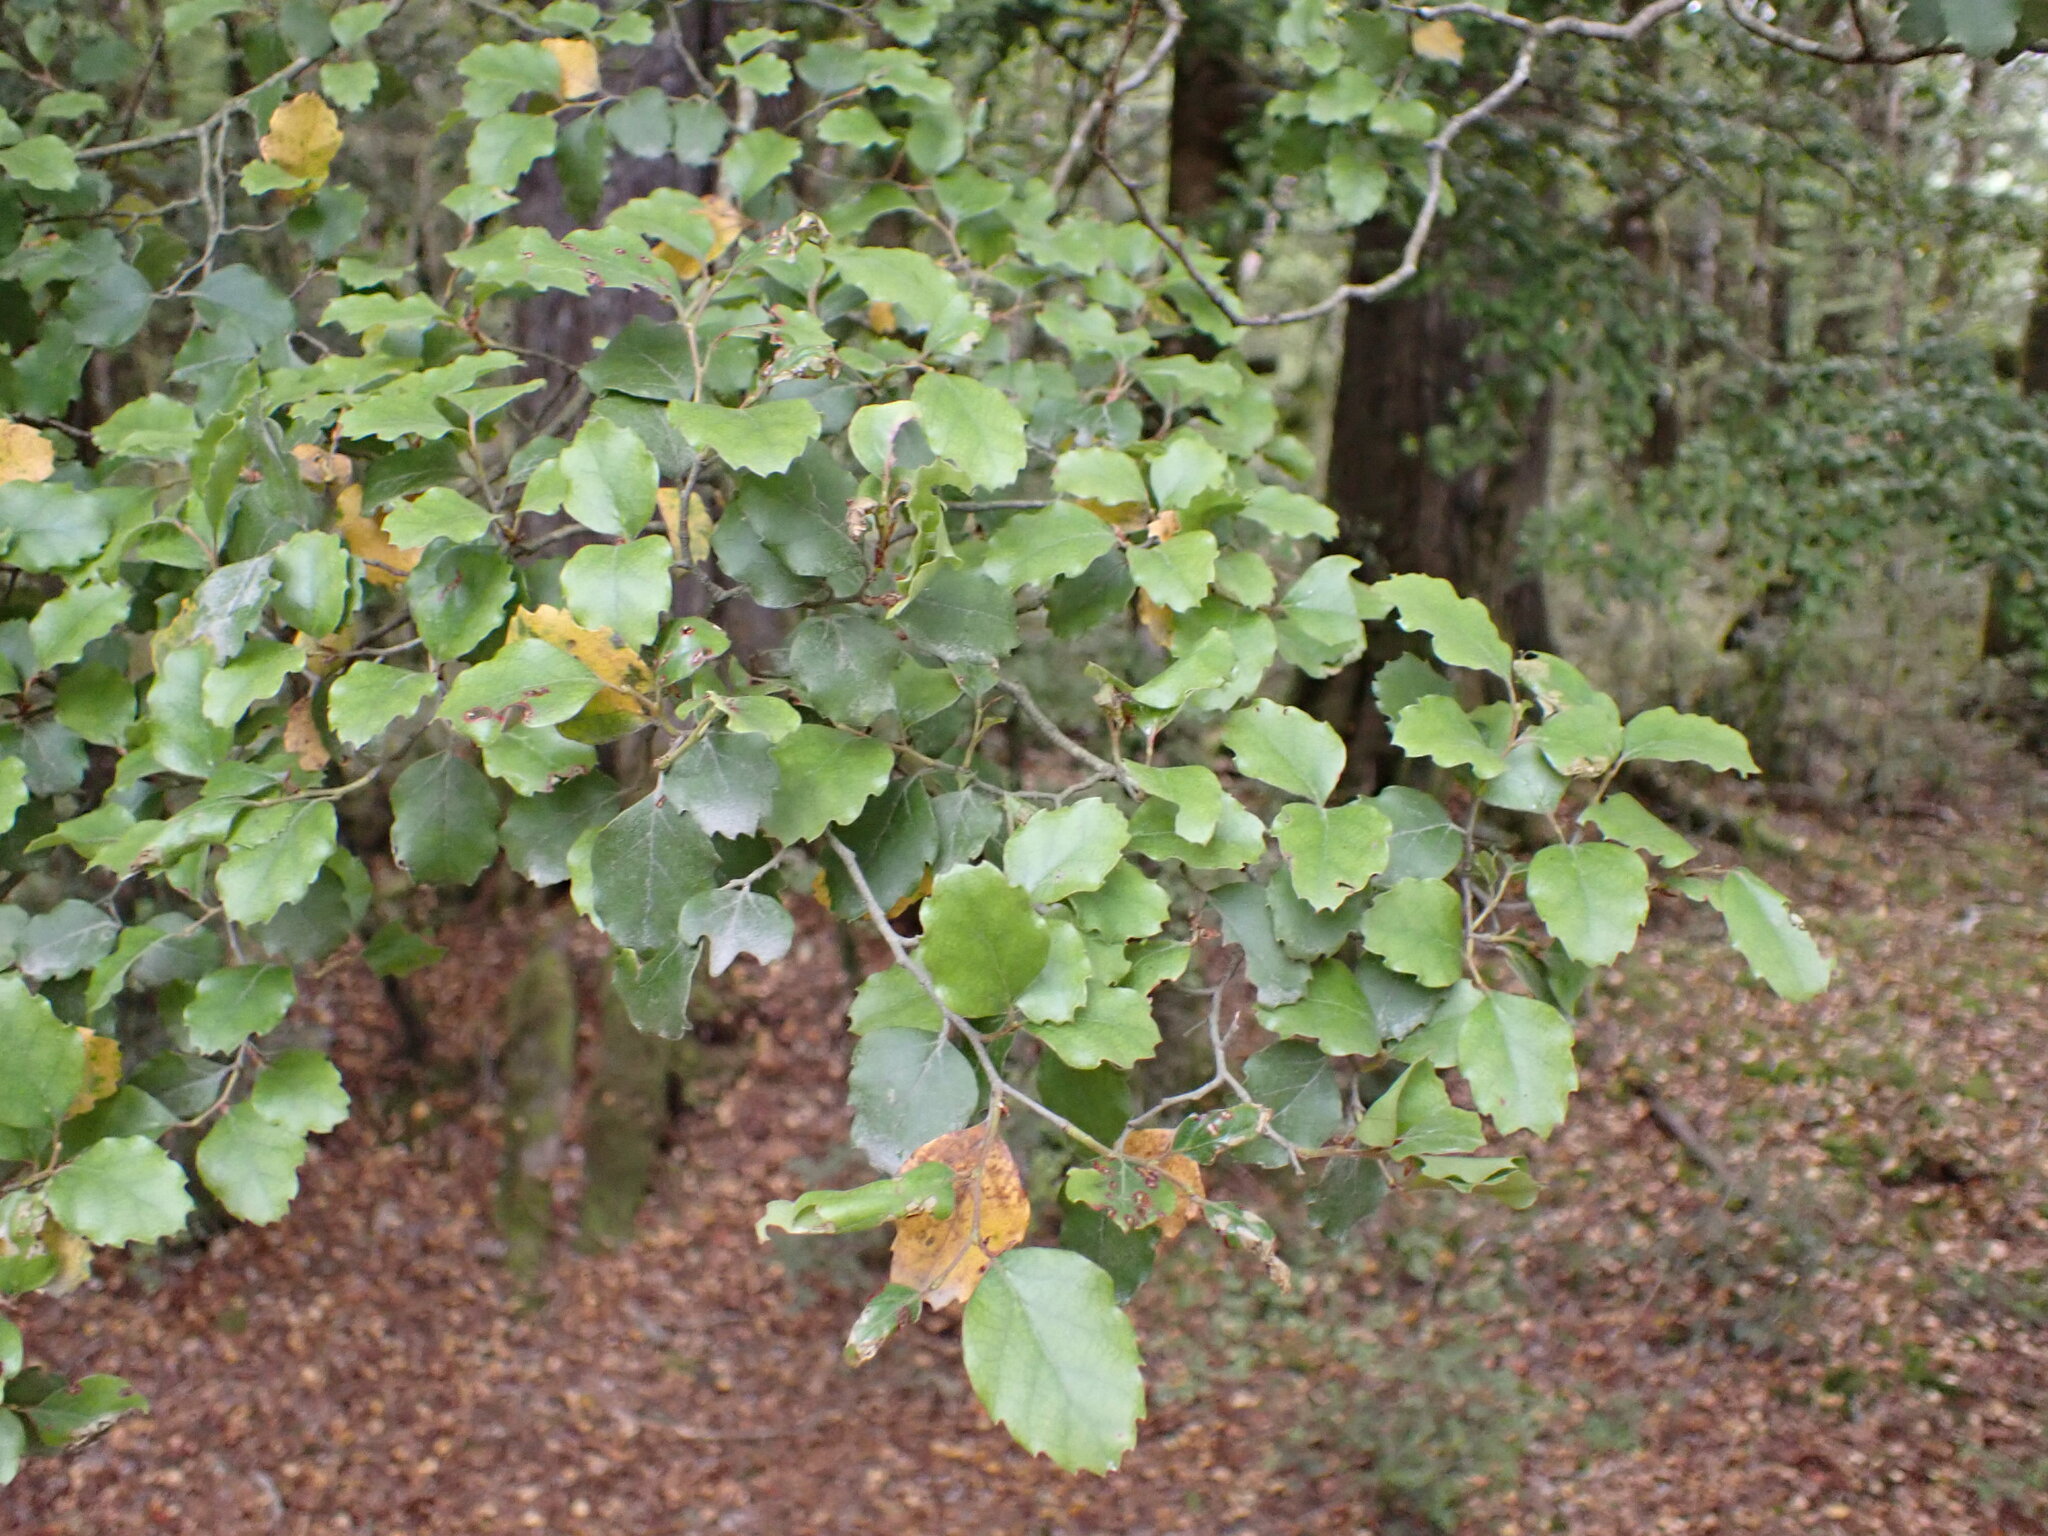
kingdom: Plantae
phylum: Tracheophyta
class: Magnoliopsida
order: Fagales
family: Nothofagaceae
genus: Nothofagus
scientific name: Nothofagus fusca
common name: Red beech
